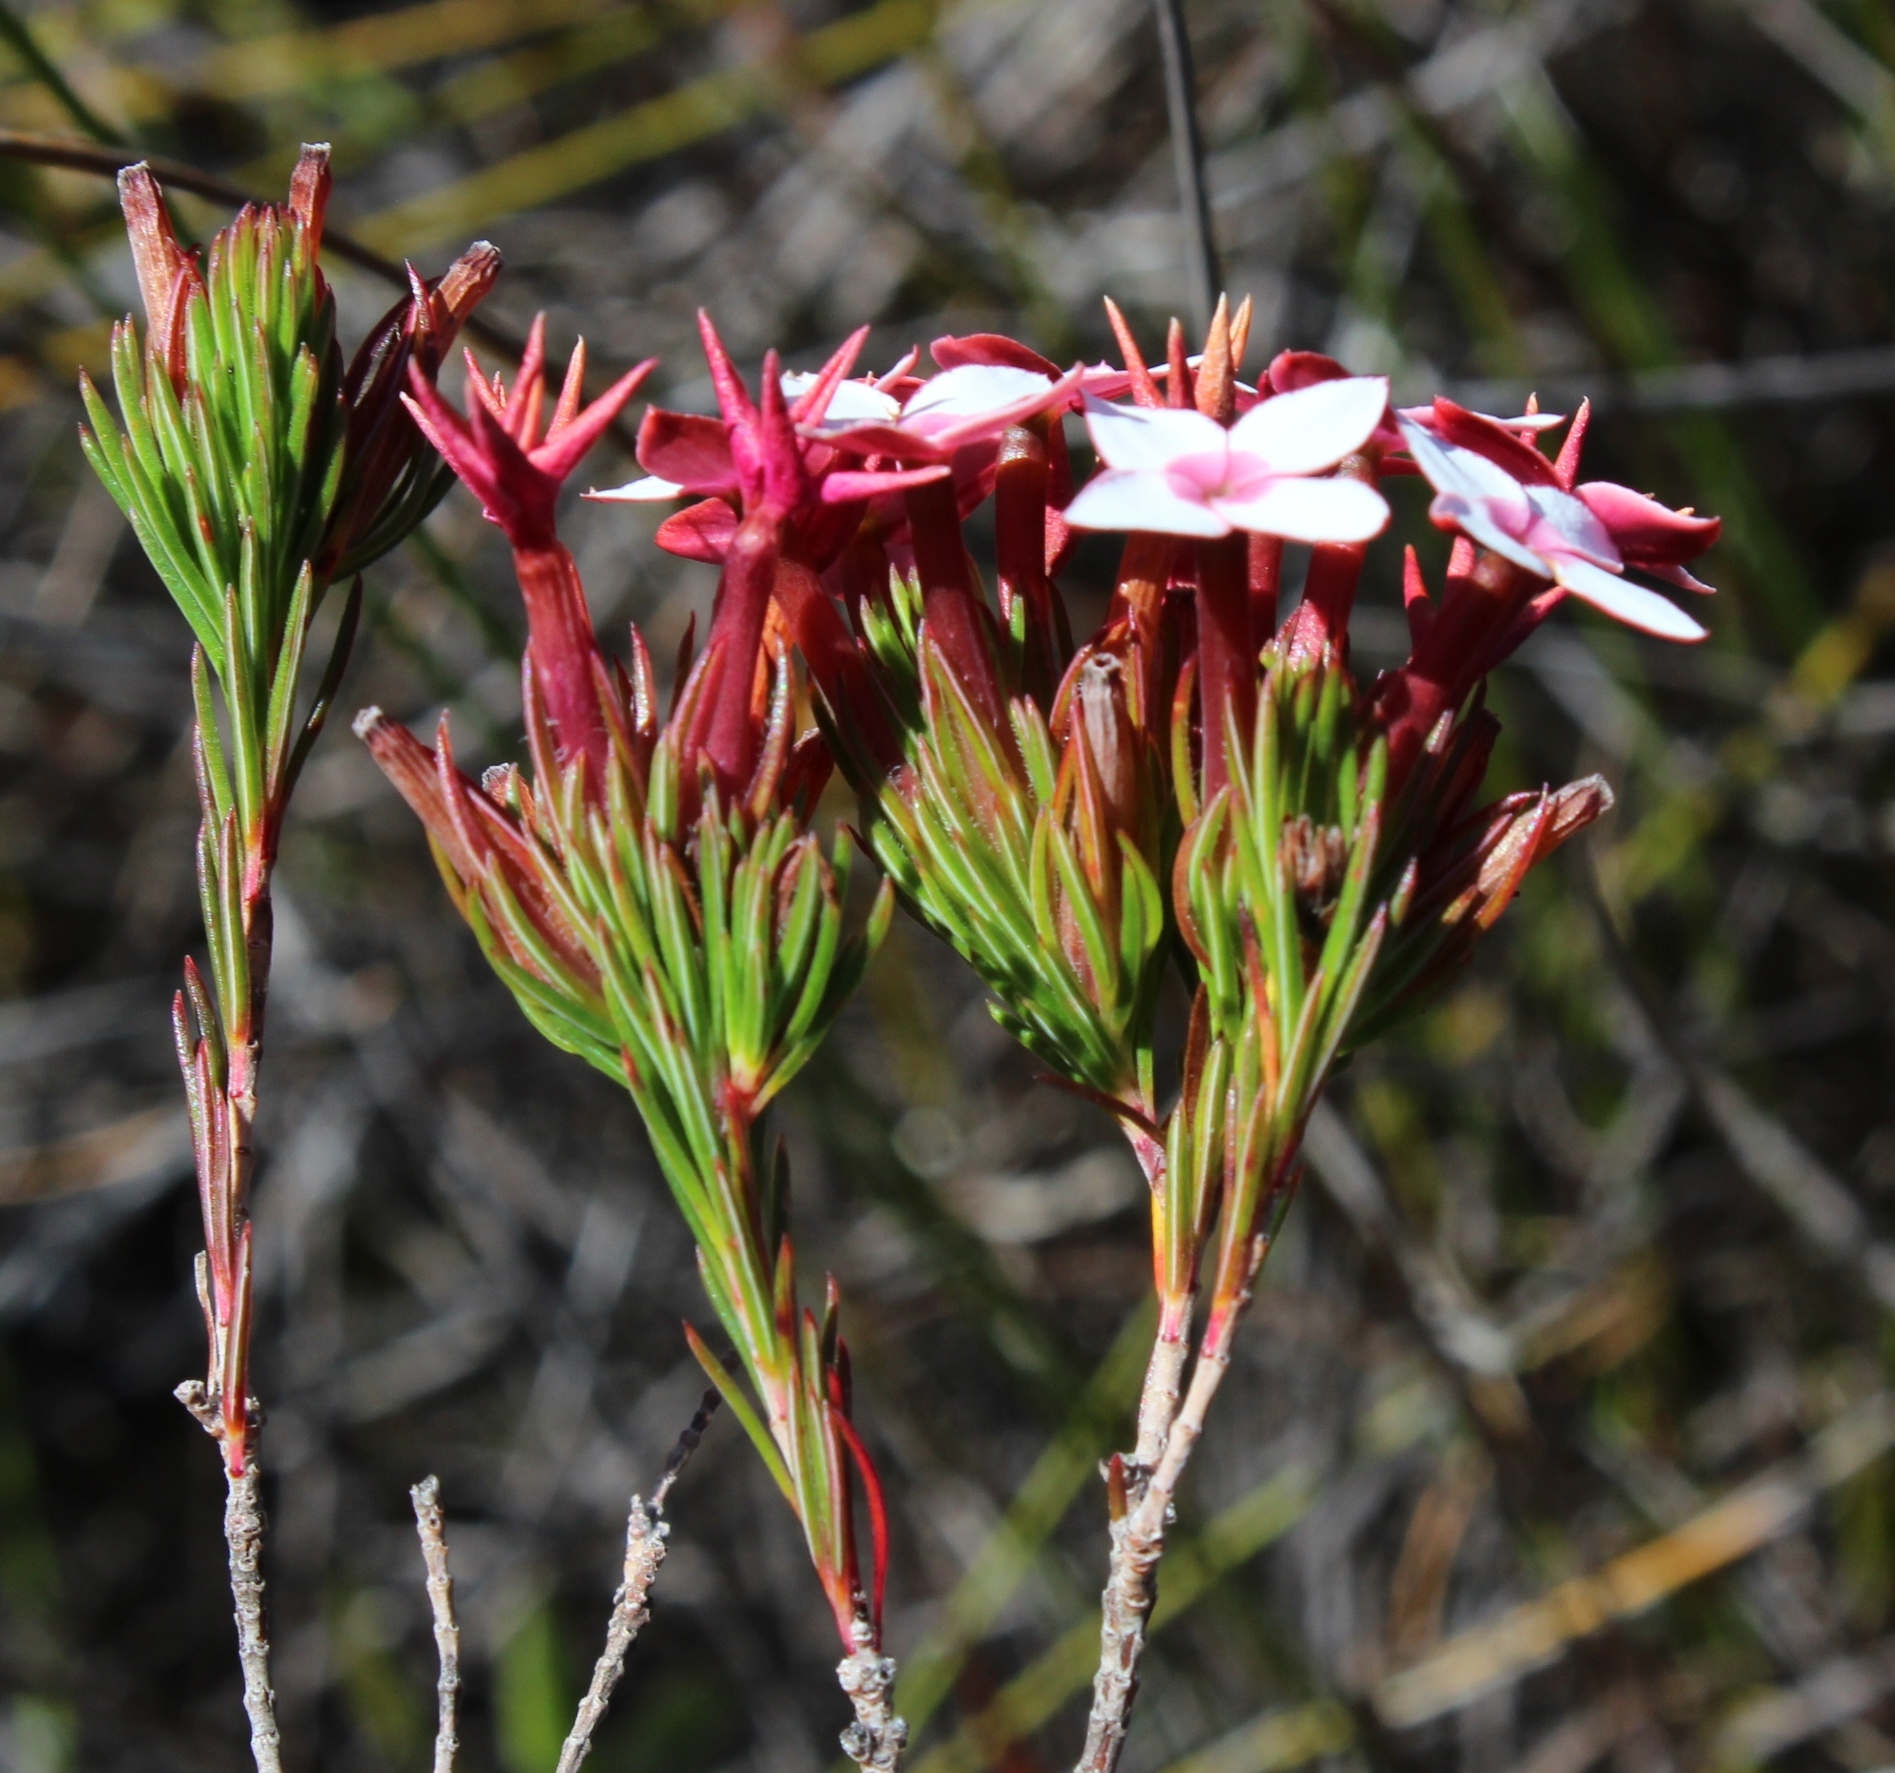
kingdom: Plantae
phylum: Tracheophyta
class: Magnoliopsida
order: Ericales
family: Ericaceae
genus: Erica
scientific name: Erica fastigiata
